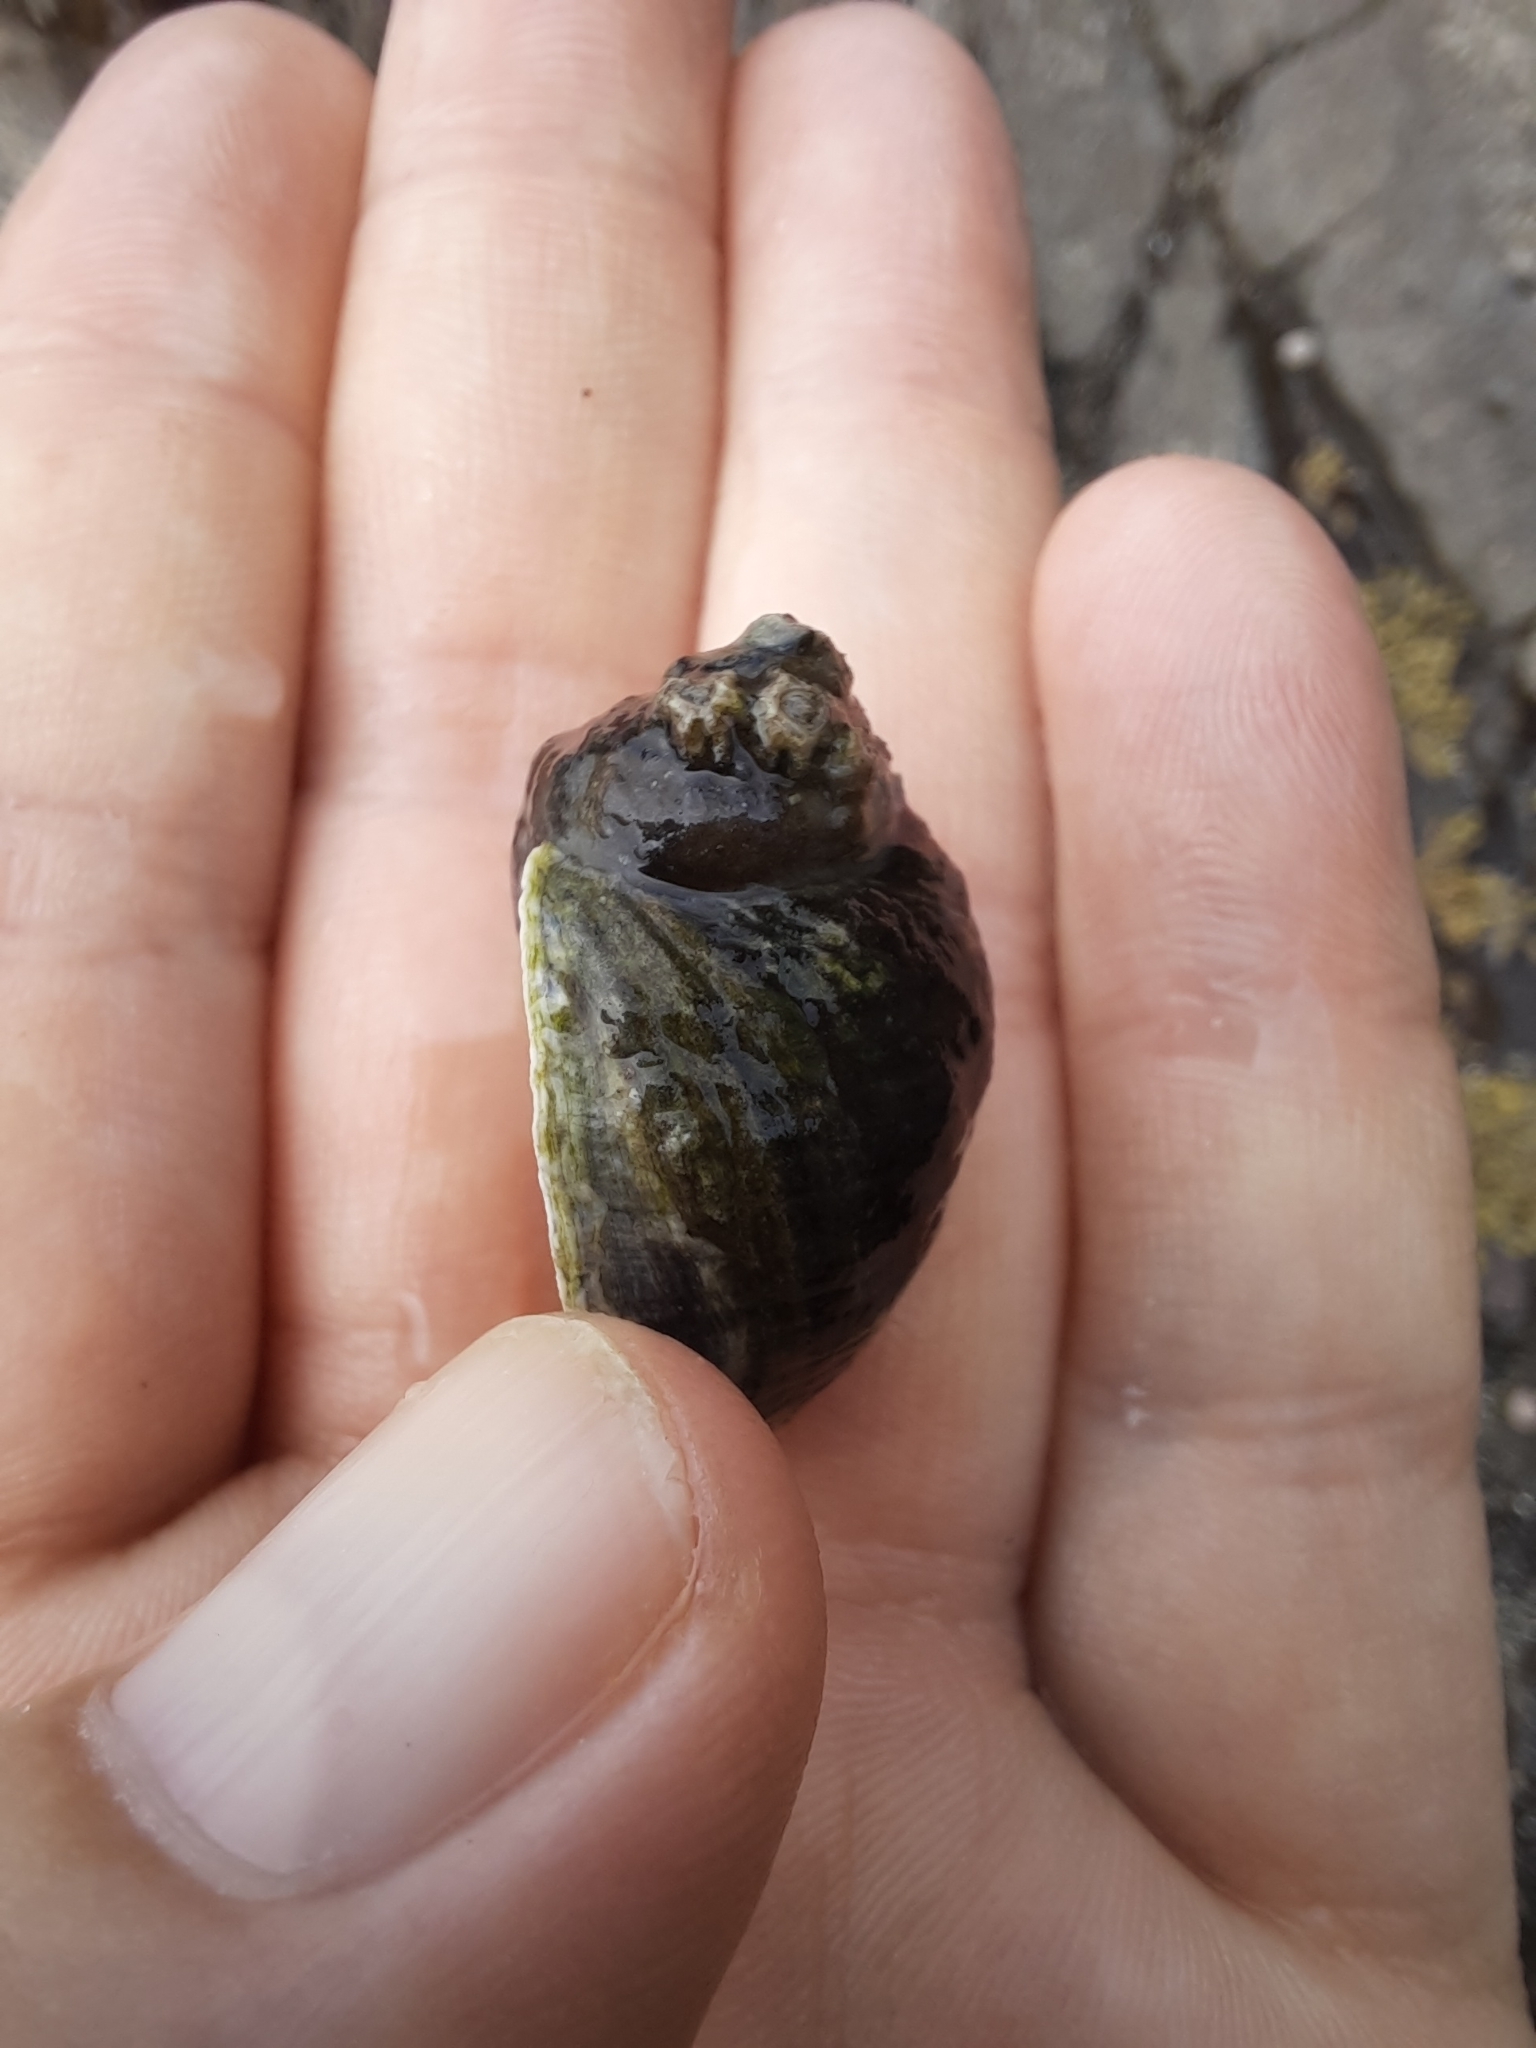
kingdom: Animalia
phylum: Mollusca
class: Gastropoda
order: Neogastropoda
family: Muricidae
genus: Haustrum
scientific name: Haustrum haustorium
